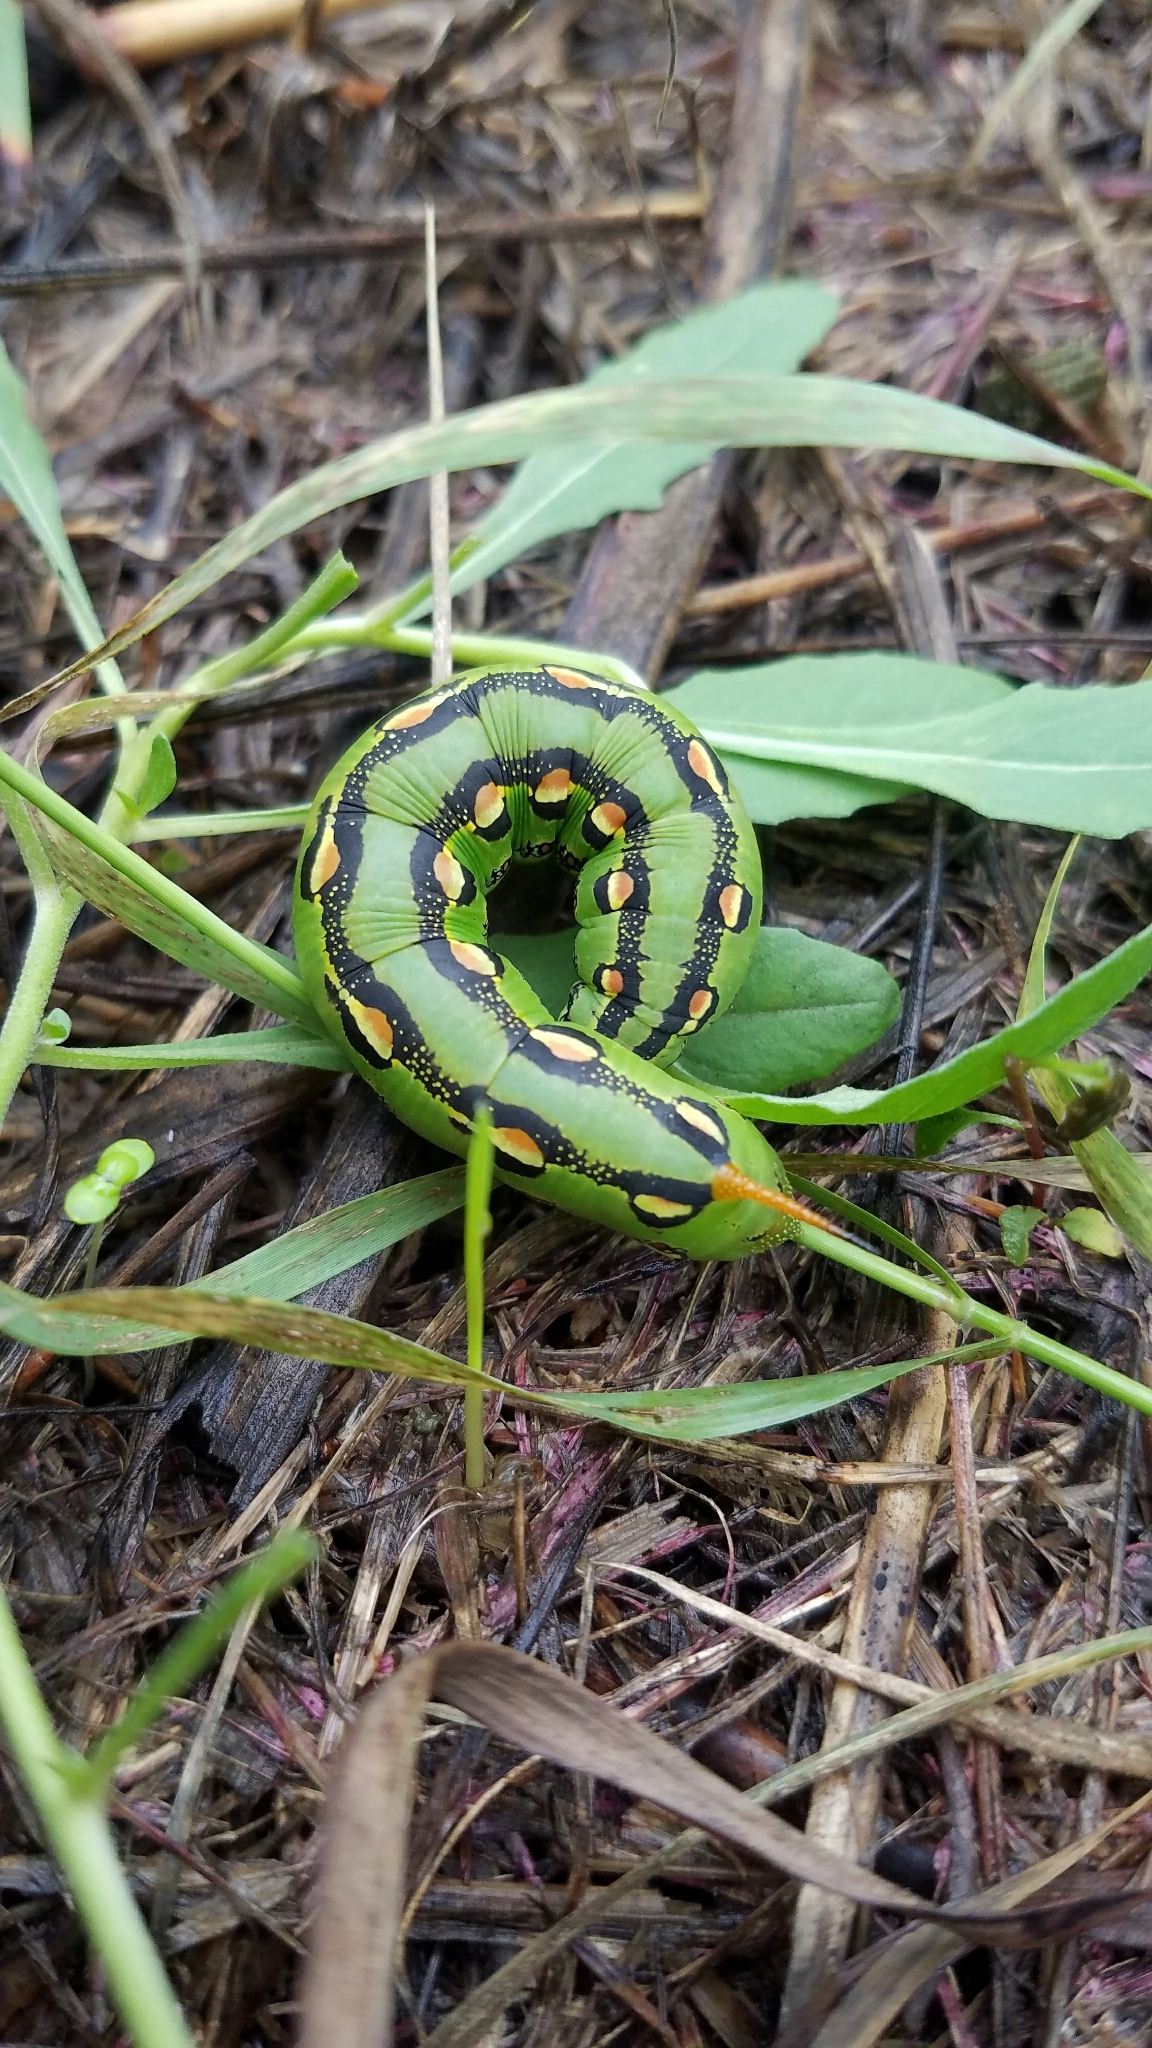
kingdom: Animalia
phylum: Arthropoda
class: Insecta
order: Lepidoptera
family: Sphingidae
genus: Hyles
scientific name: Hyles lineata
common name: White-lined sphinx
